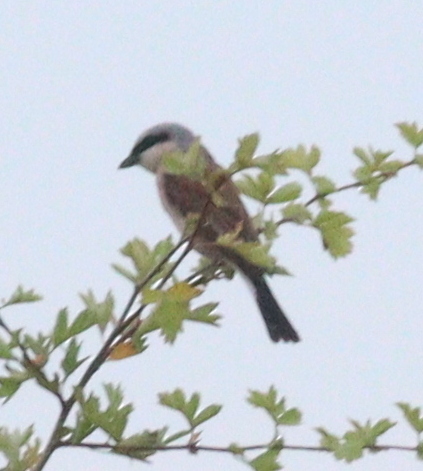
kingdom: Animalia
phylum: Chordata
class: Aves
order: Passeriformes
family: Laniidae
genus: Lanius
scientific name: Lanius collurio
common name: Red-backed shrike
